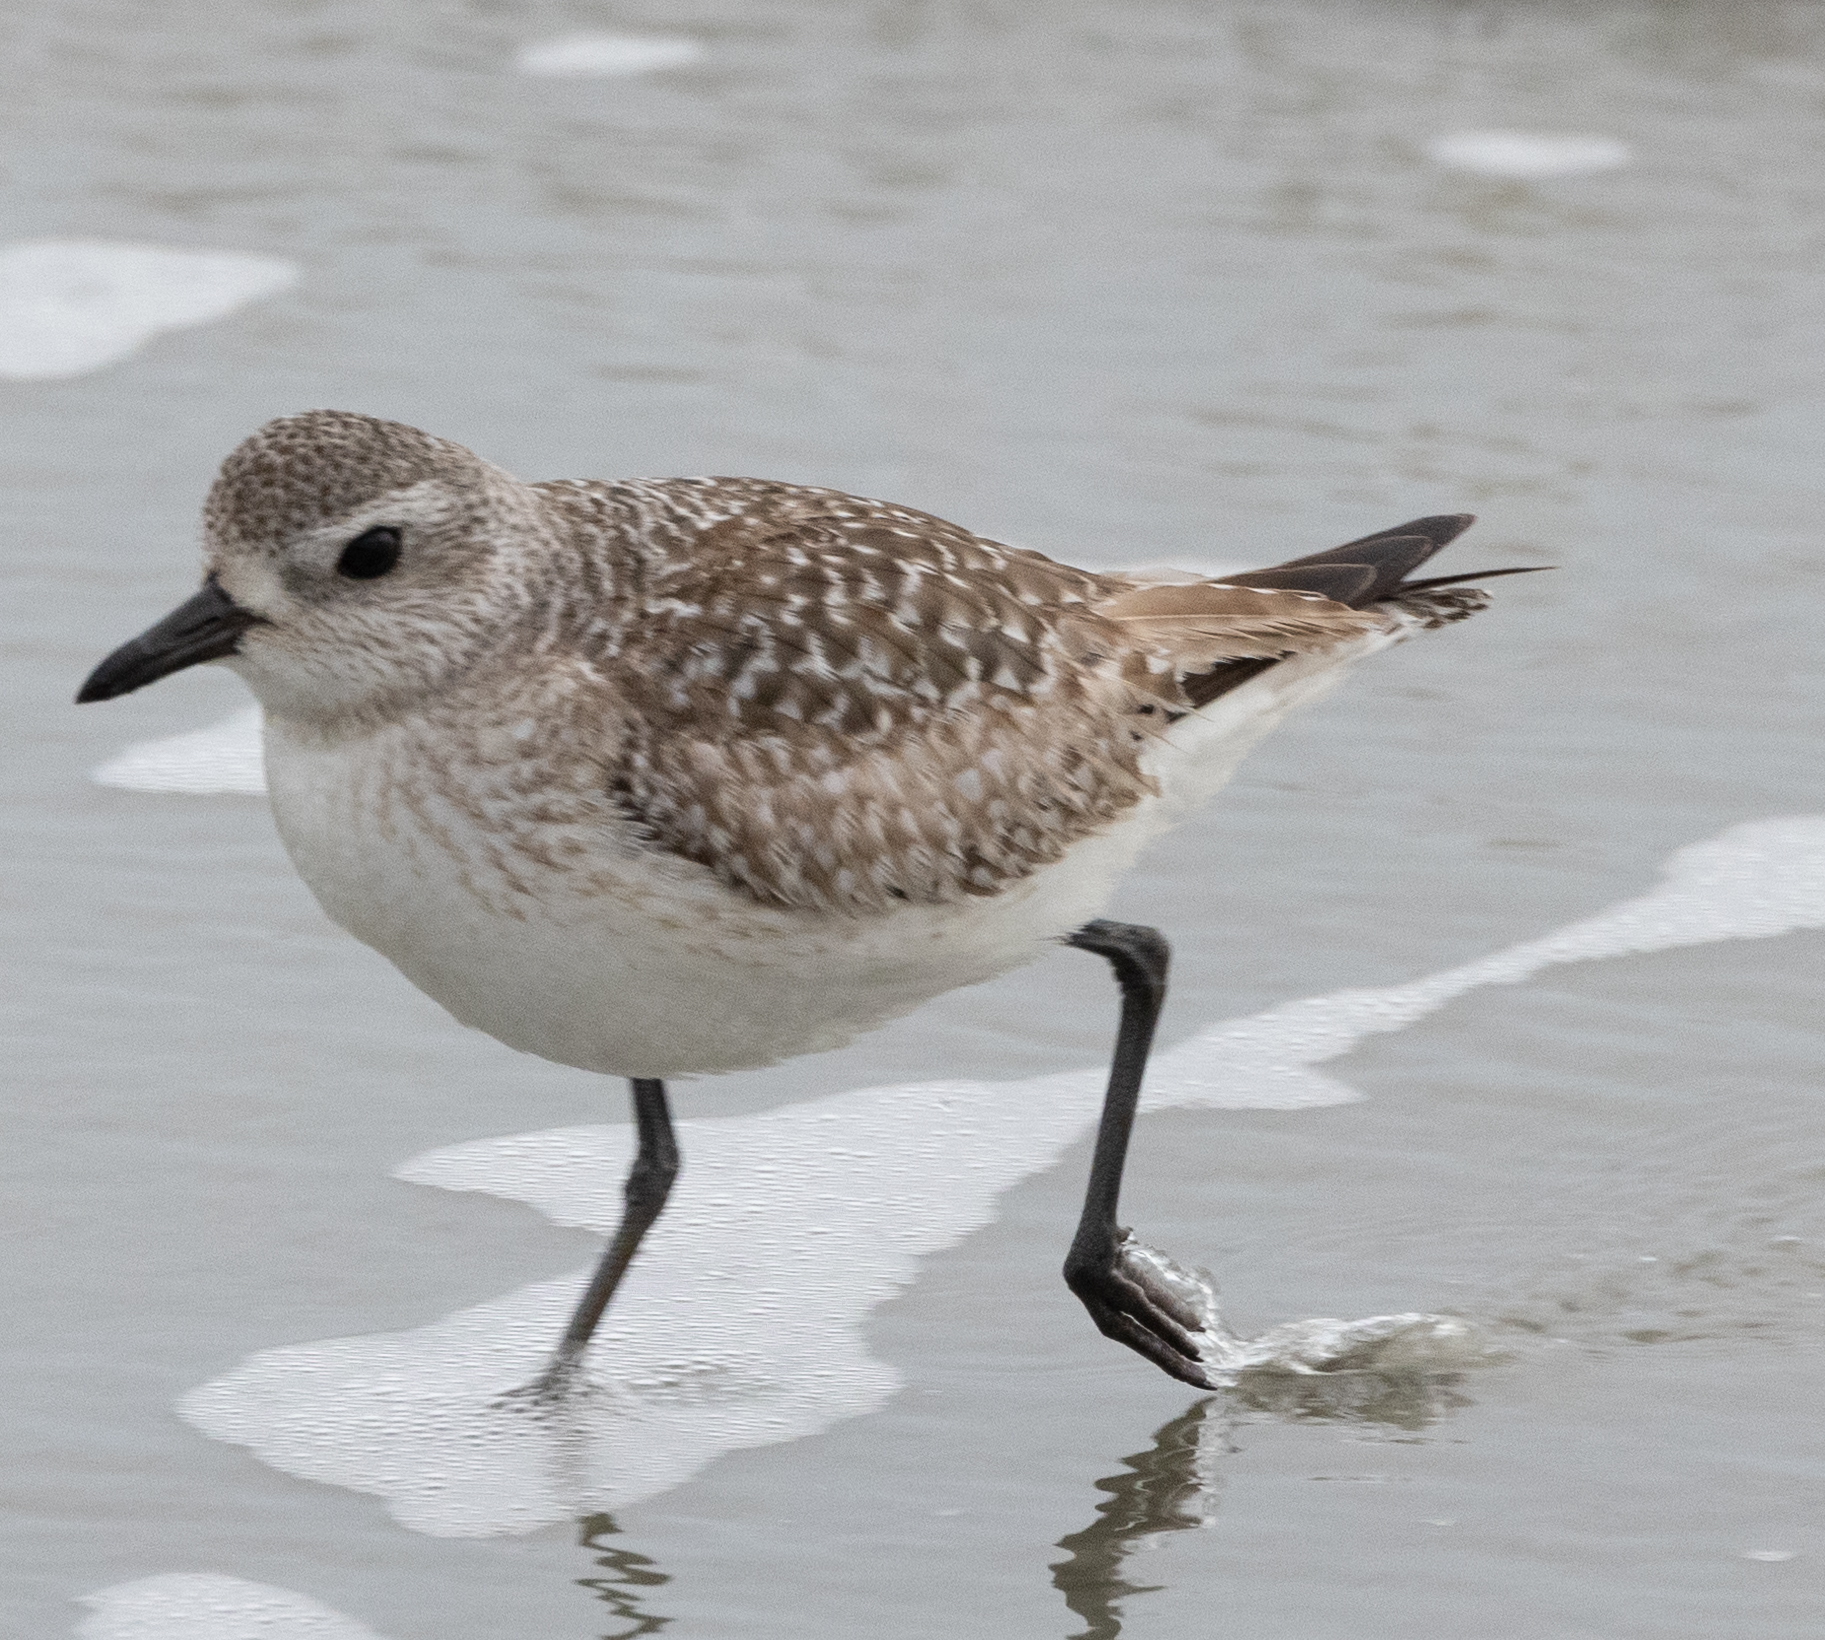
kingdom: Animalia
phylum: Chordata
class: Aves
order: Charadriiformes
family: Charadriidae
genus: Pluvialis
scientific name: Pluvialis squatarola
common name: Grey plover
